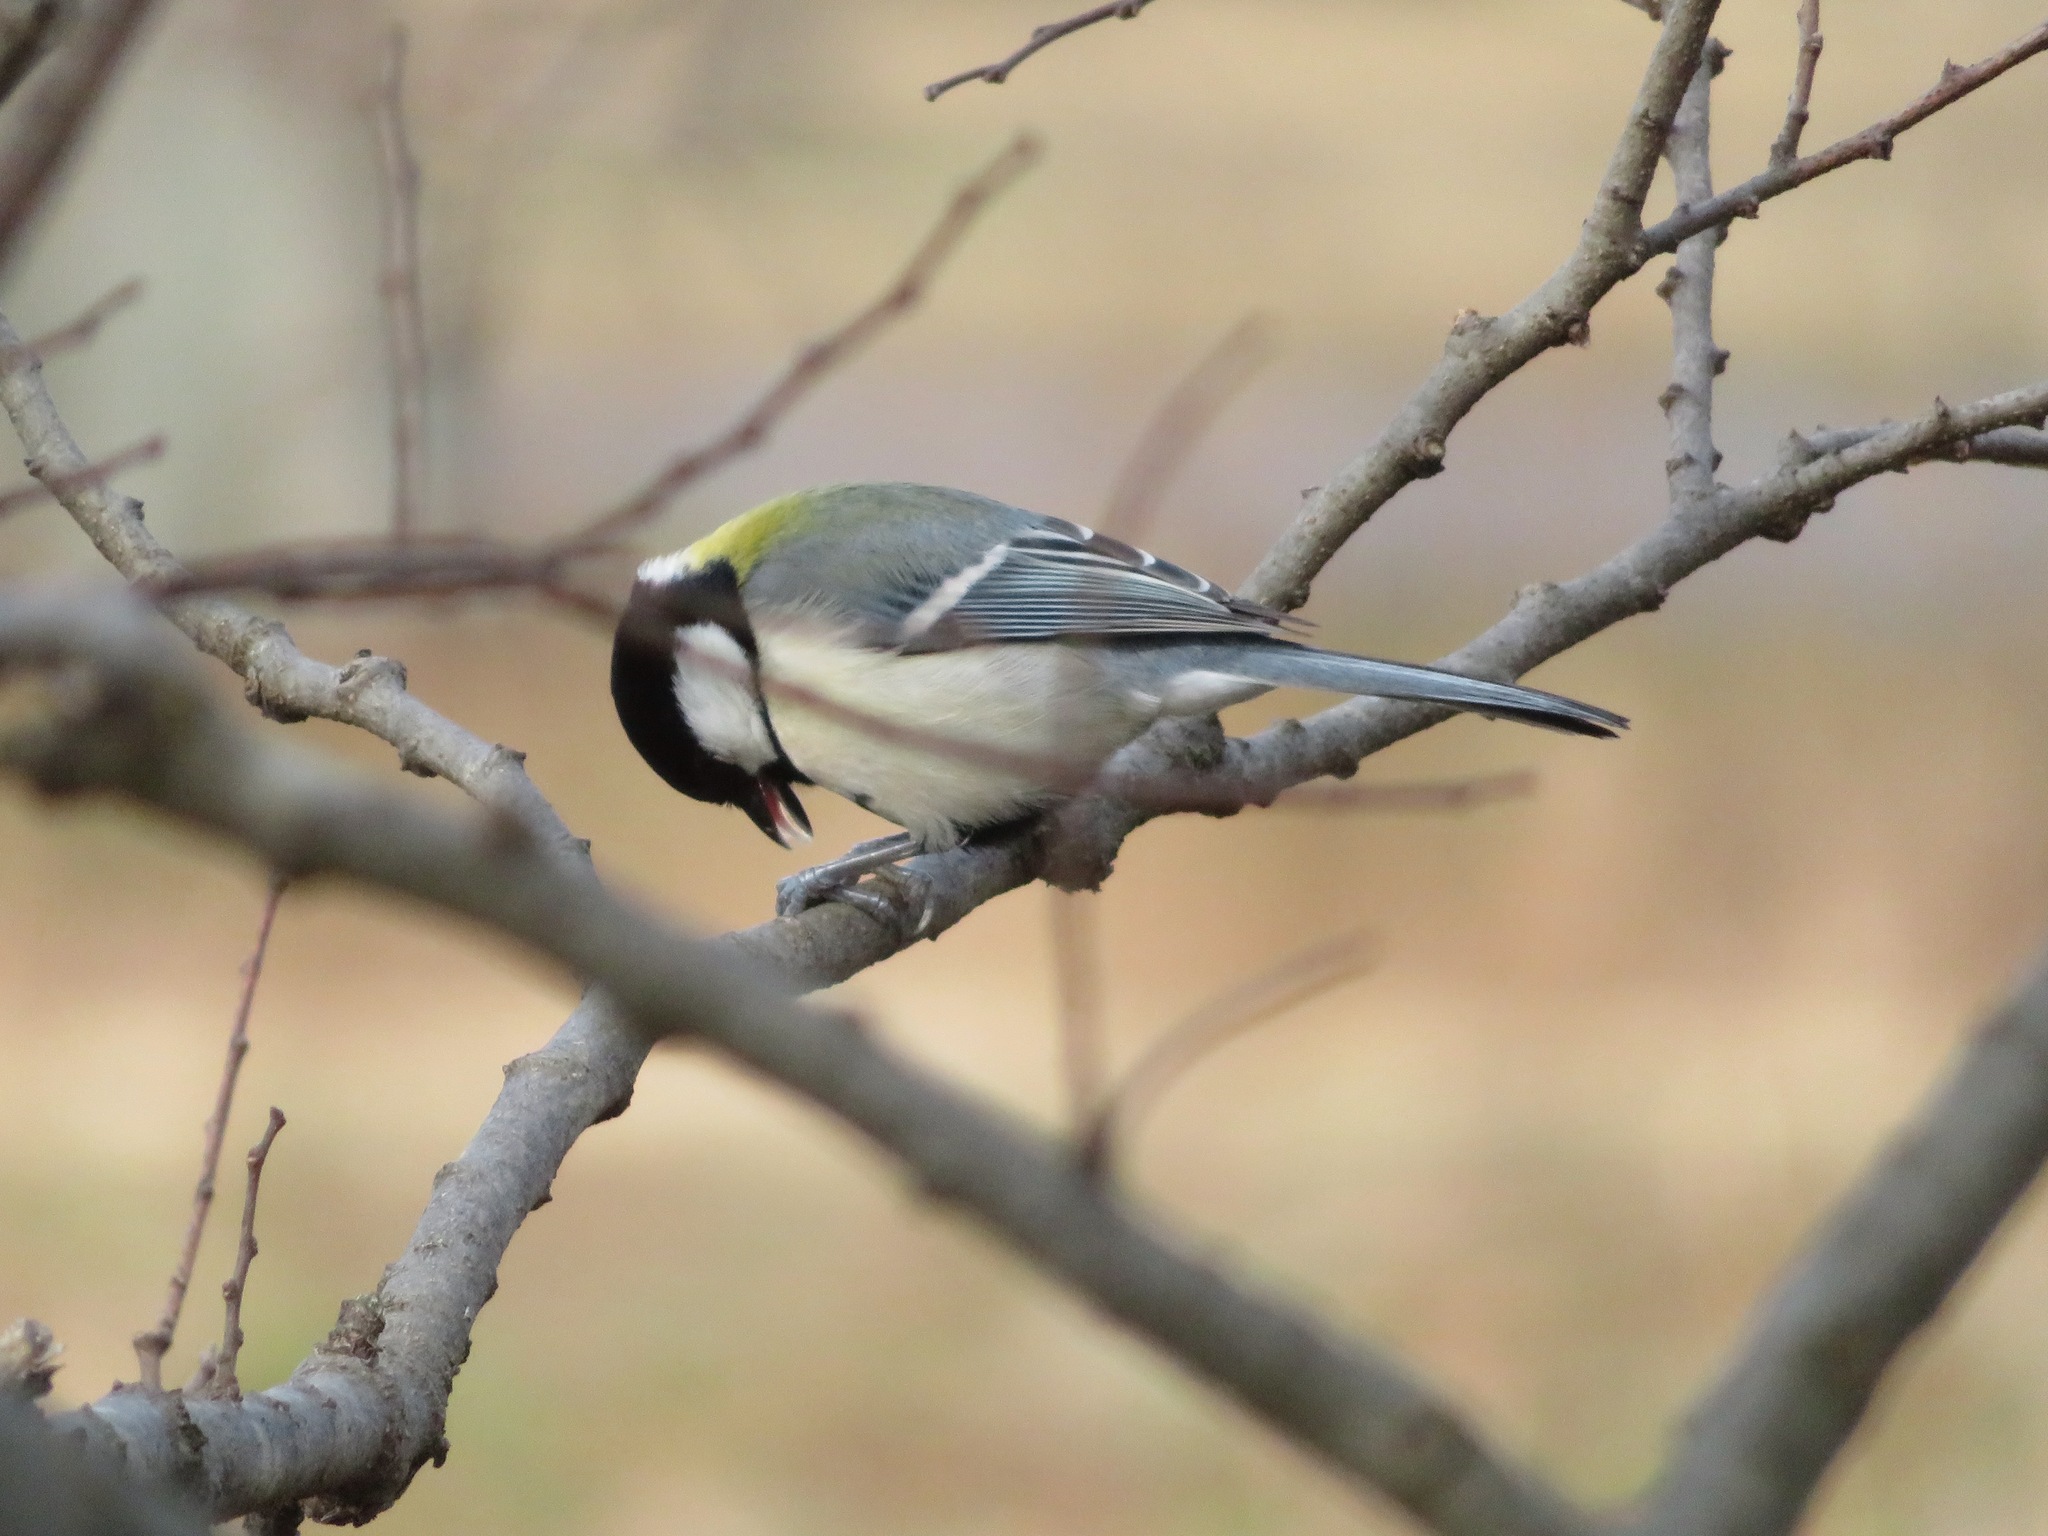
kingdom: Animalia
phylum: Chordata
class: Aves
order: Passeriformes
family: Paridae
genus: Parus
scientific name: Parus minor
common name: Japanese tit
